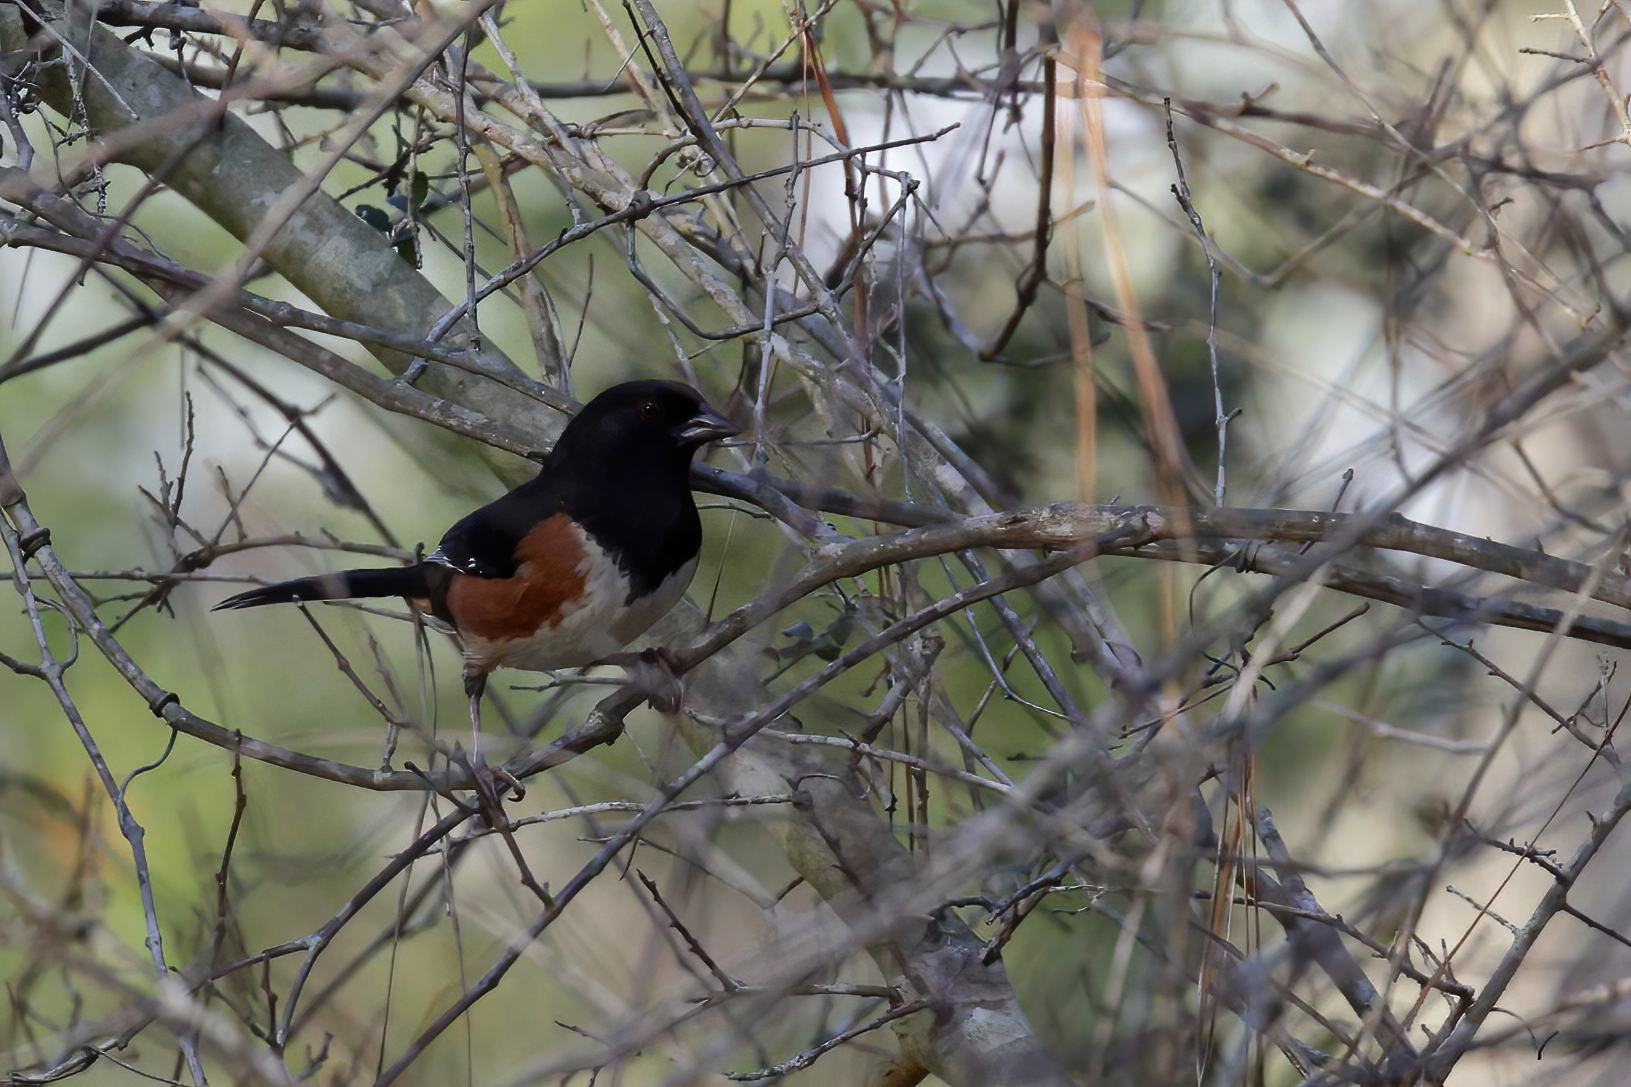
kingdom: Animalia
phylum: Chordata
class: Aves
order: Passeriformes
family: Passerellidae
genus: Pipilo
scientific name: Pipilo erythrophthalmus
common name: Eastern towhee
